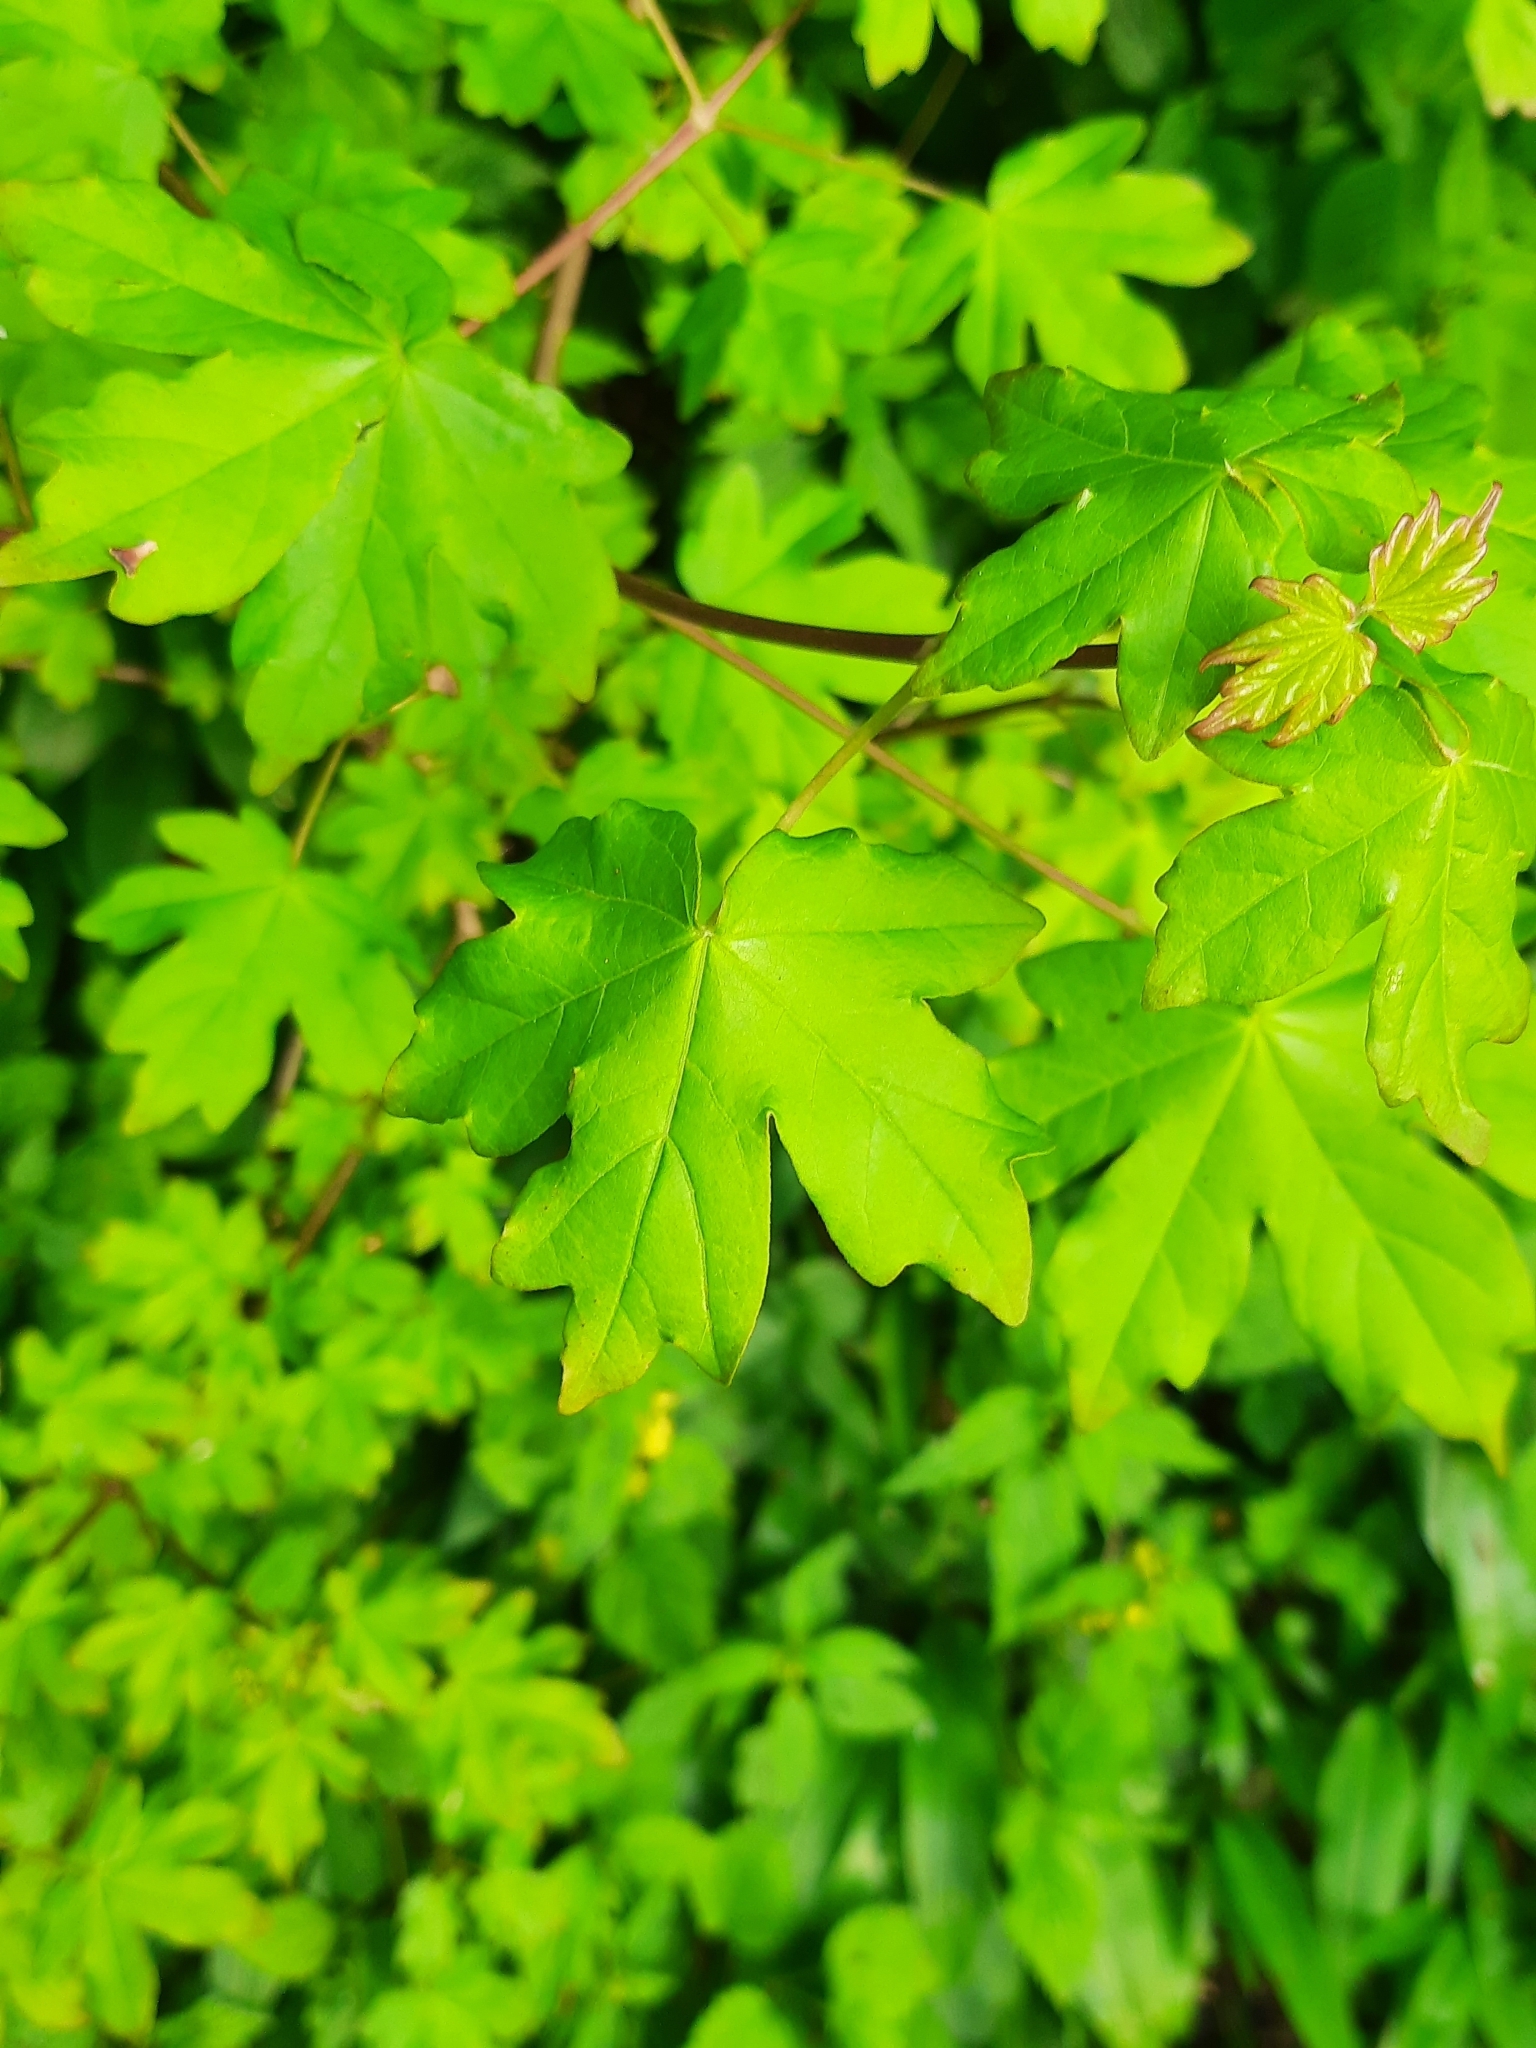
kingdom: Plantae
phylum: Tracheophyta
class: Magnoliopsida
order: Sapindales
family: Sapindaceae
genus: Acer
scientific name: Acer campestre
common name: Field maple
